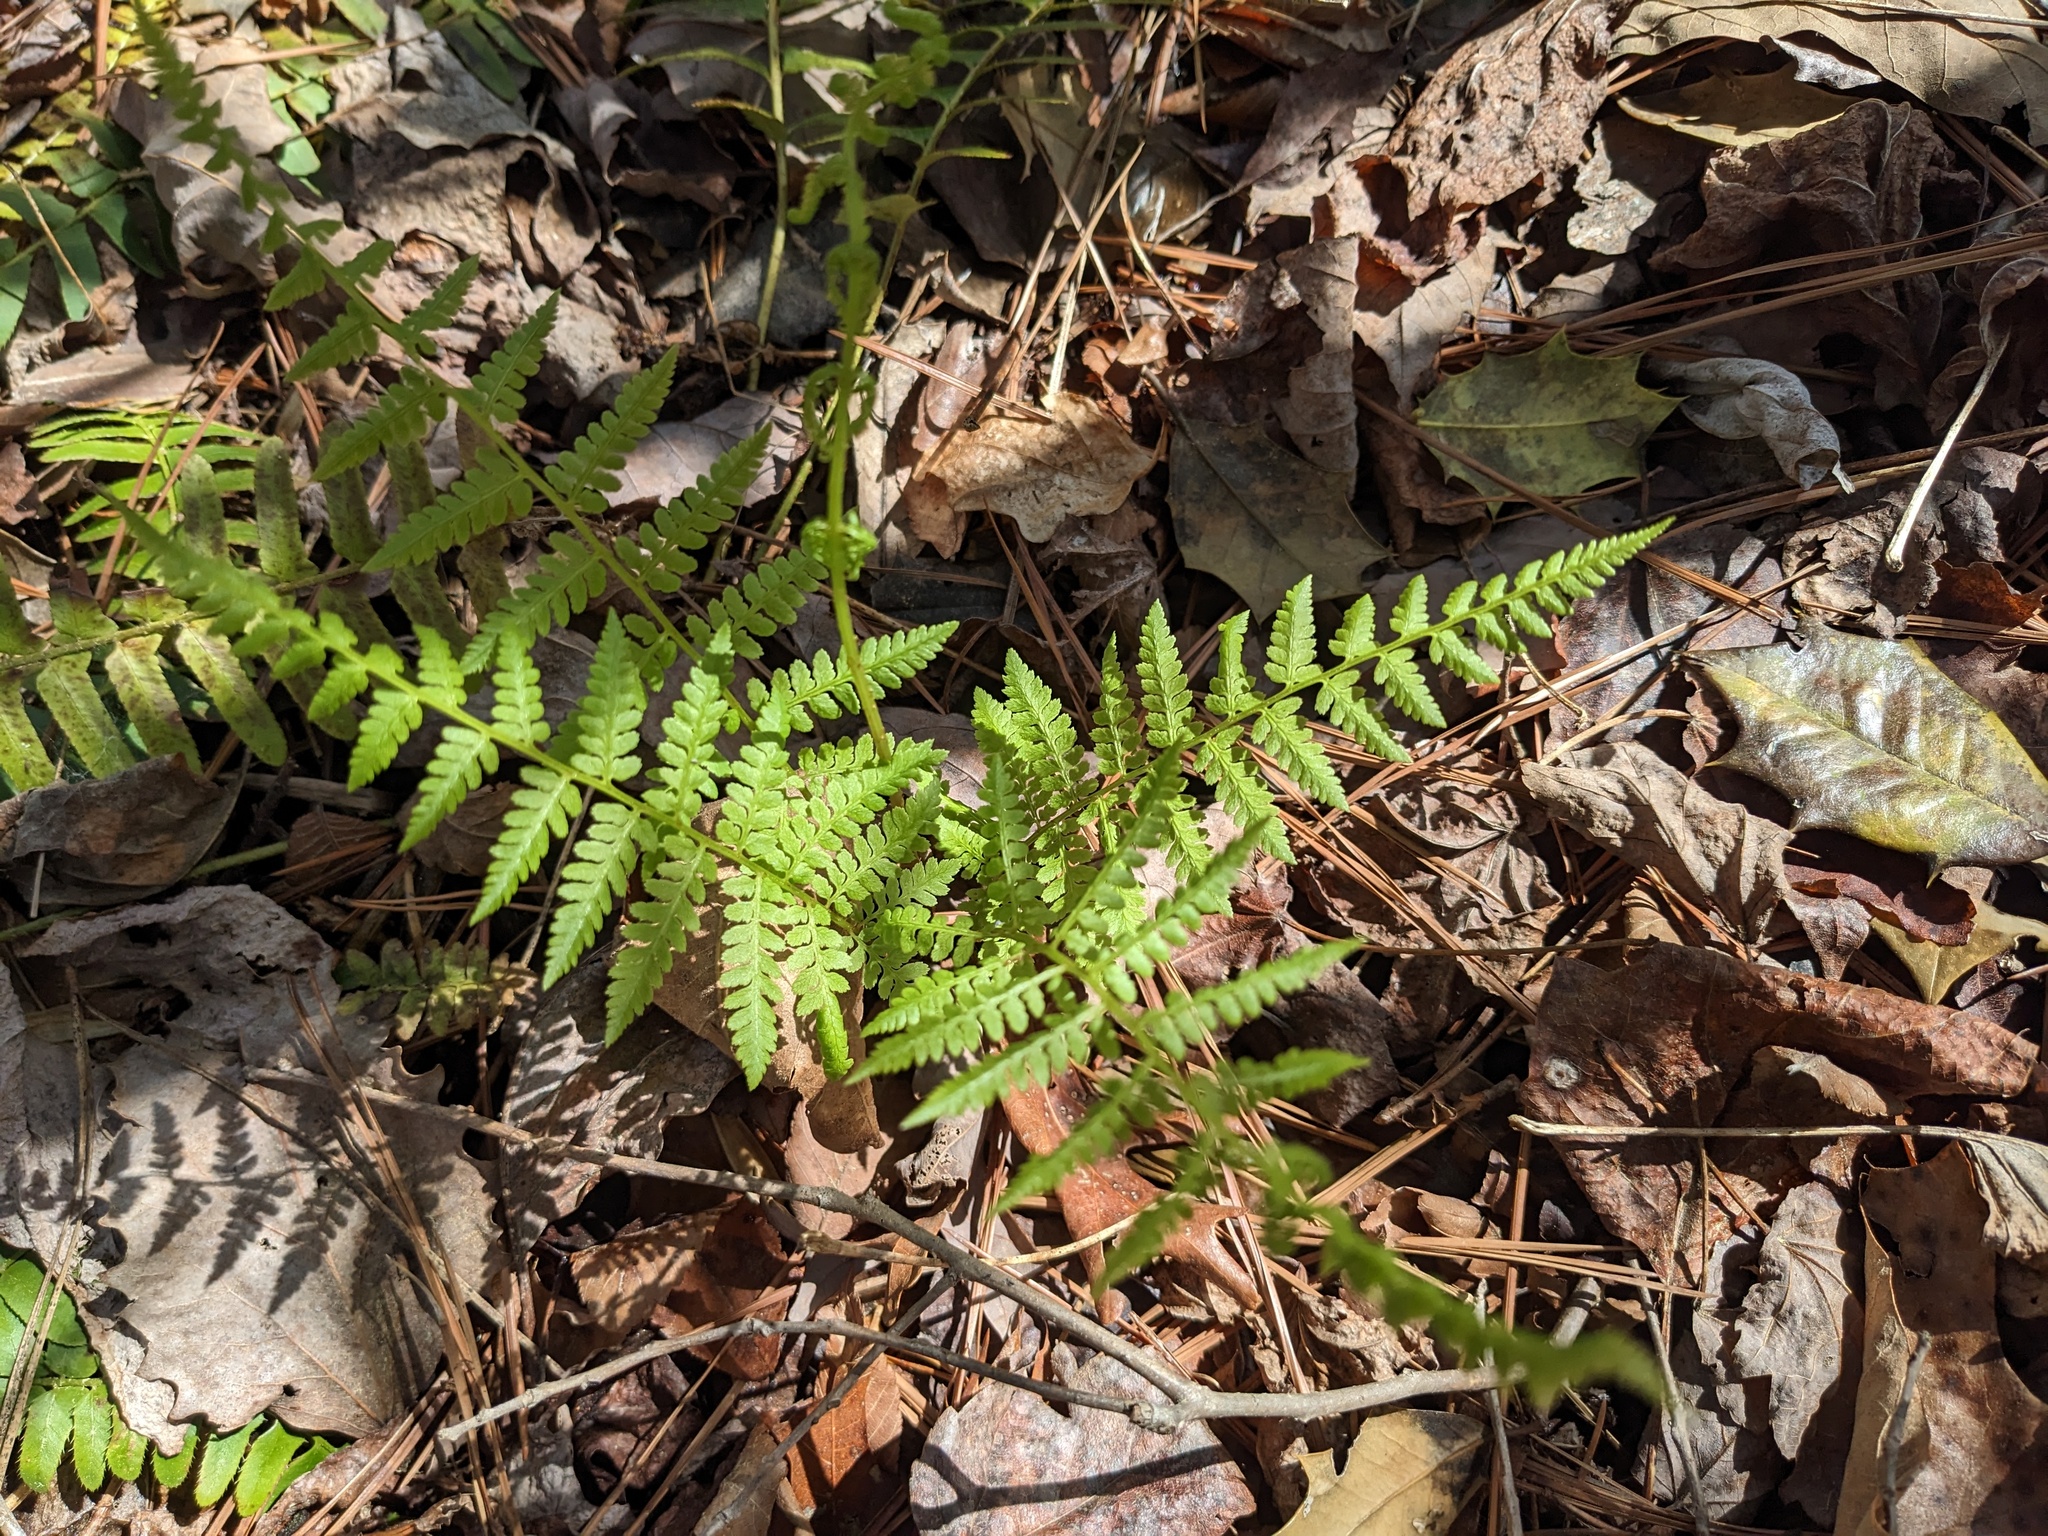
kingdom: Plantae
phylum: Tracheophyta
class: Polypodiopsida
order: Polypodiales
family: Athyriaceae
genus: Athyrium
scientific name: Athyrium asplenioides
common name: Southern lady fern
